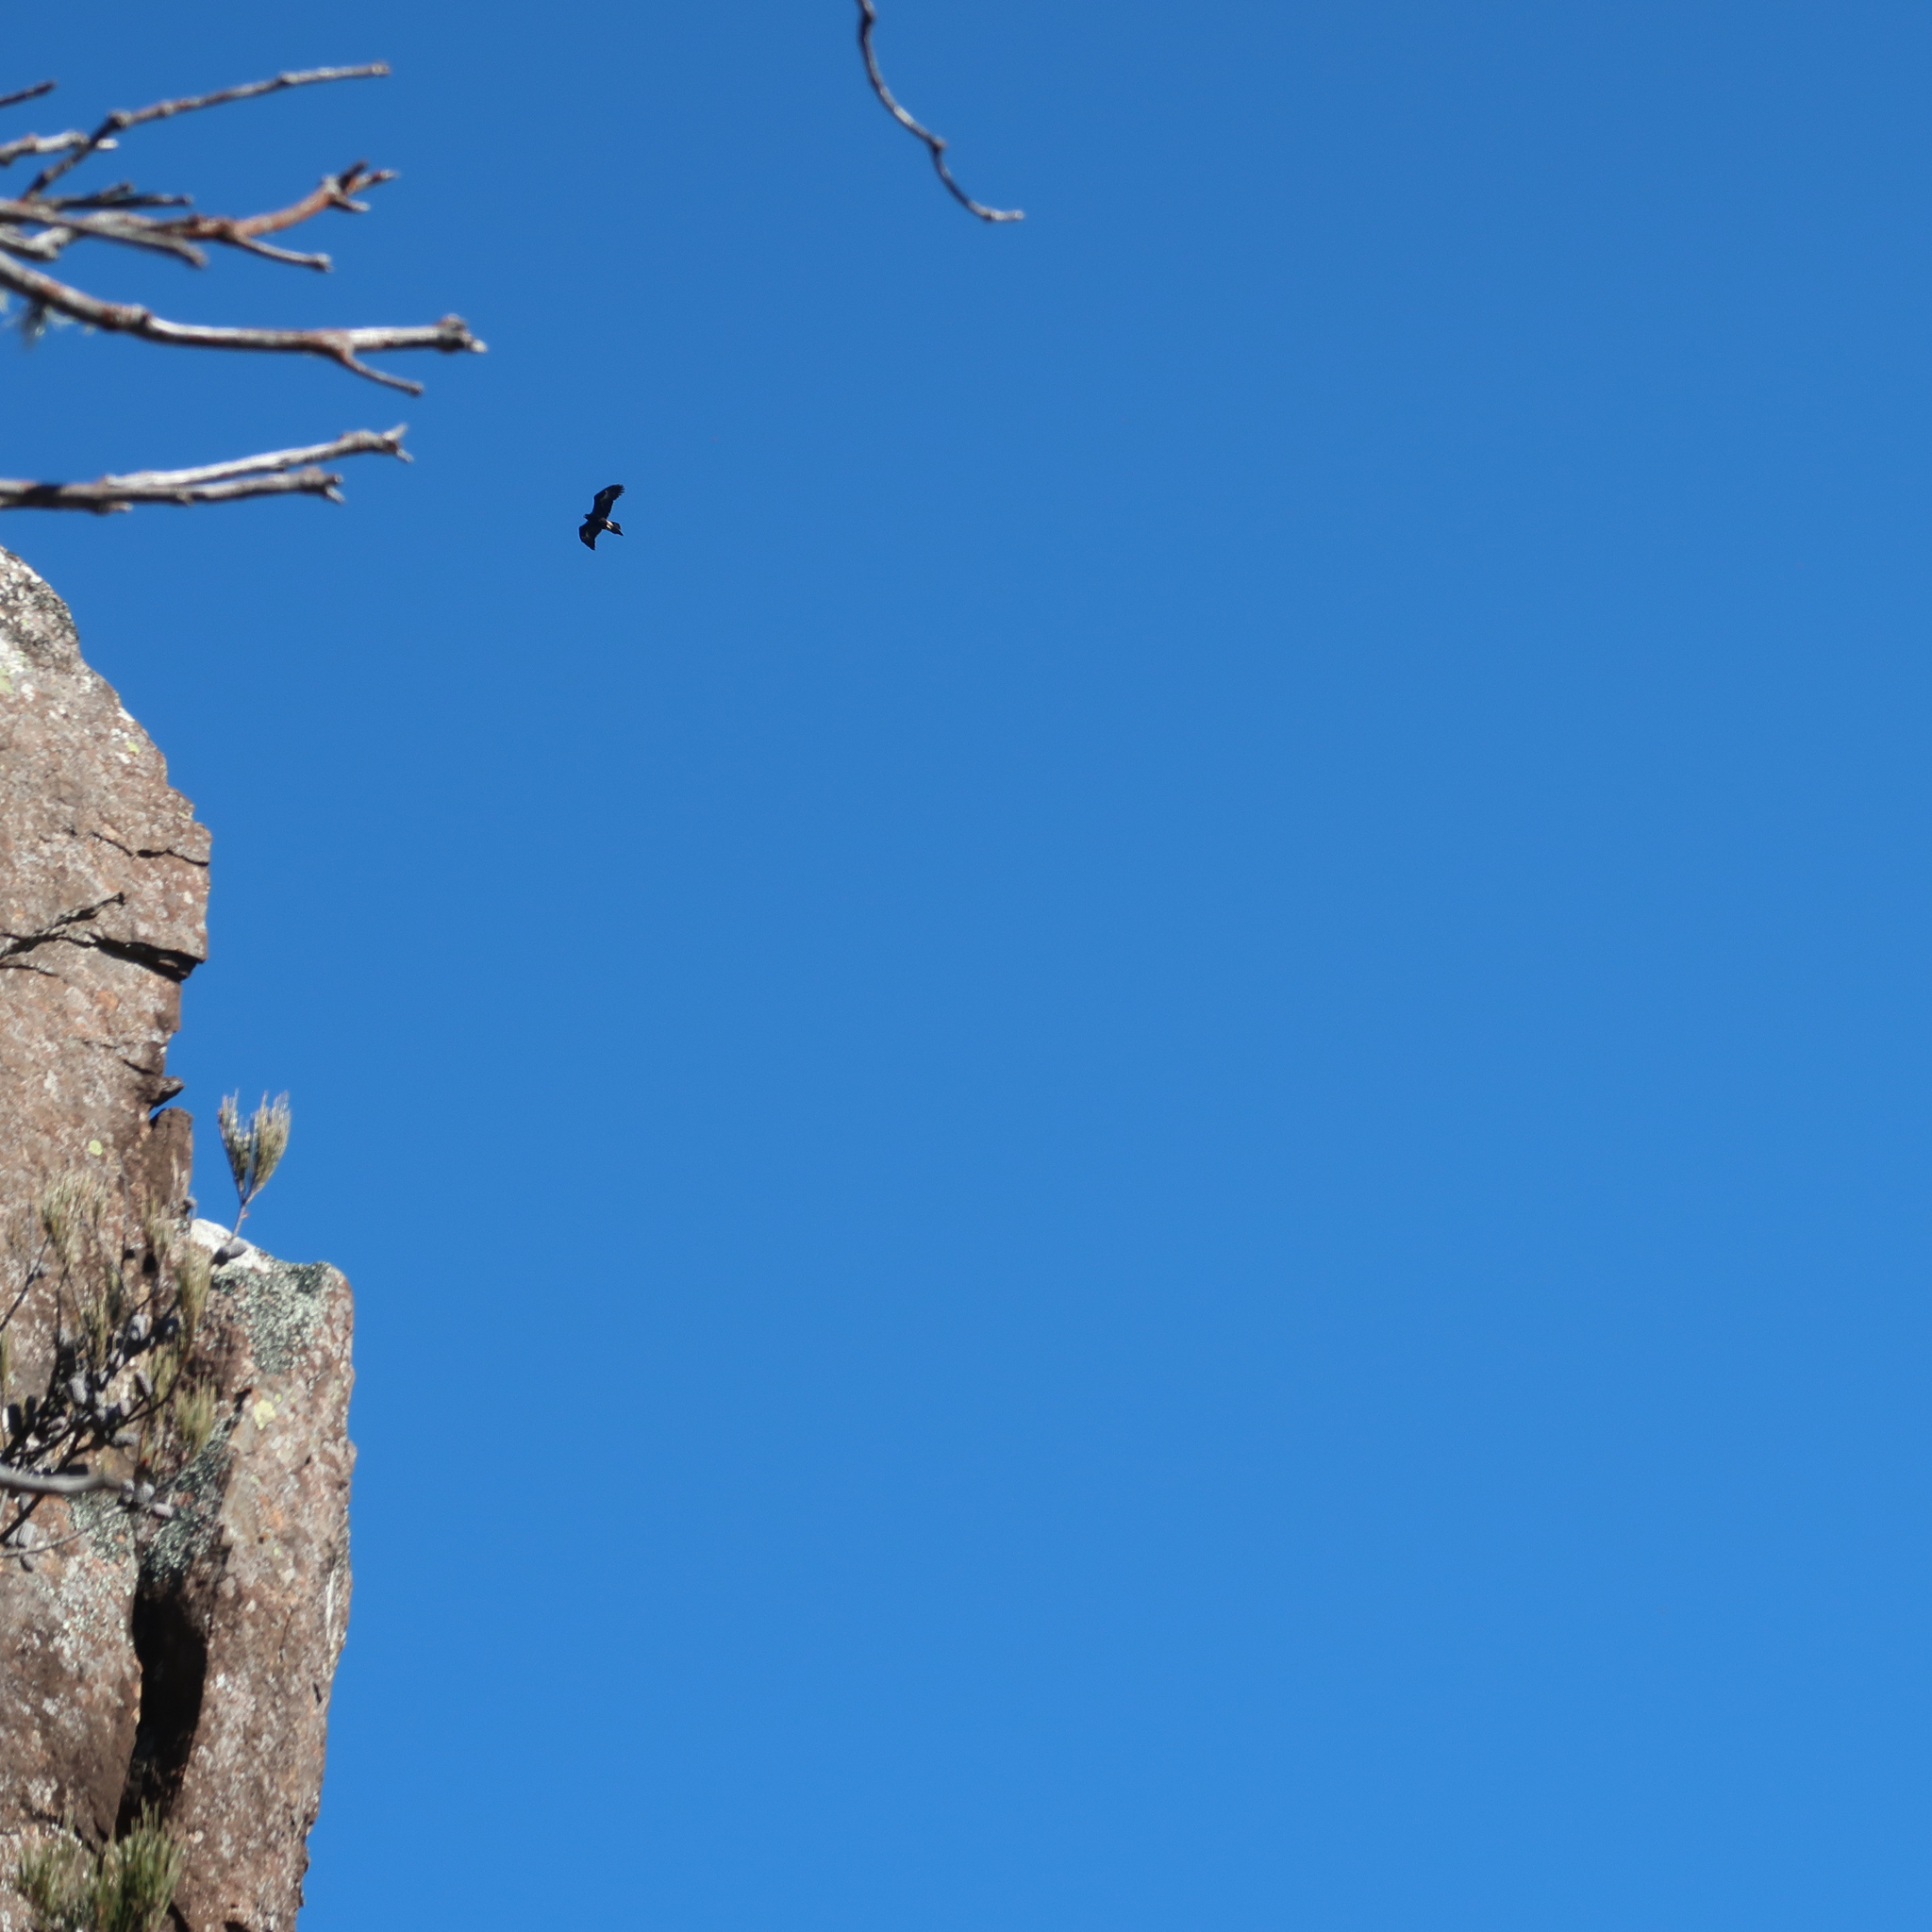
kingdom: Animalia
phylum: Chordata
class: Aves
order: Accipitriformes
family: Accipitridae
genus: Aquila
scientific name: Aquila audax
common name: Wedge-tailed eagle
